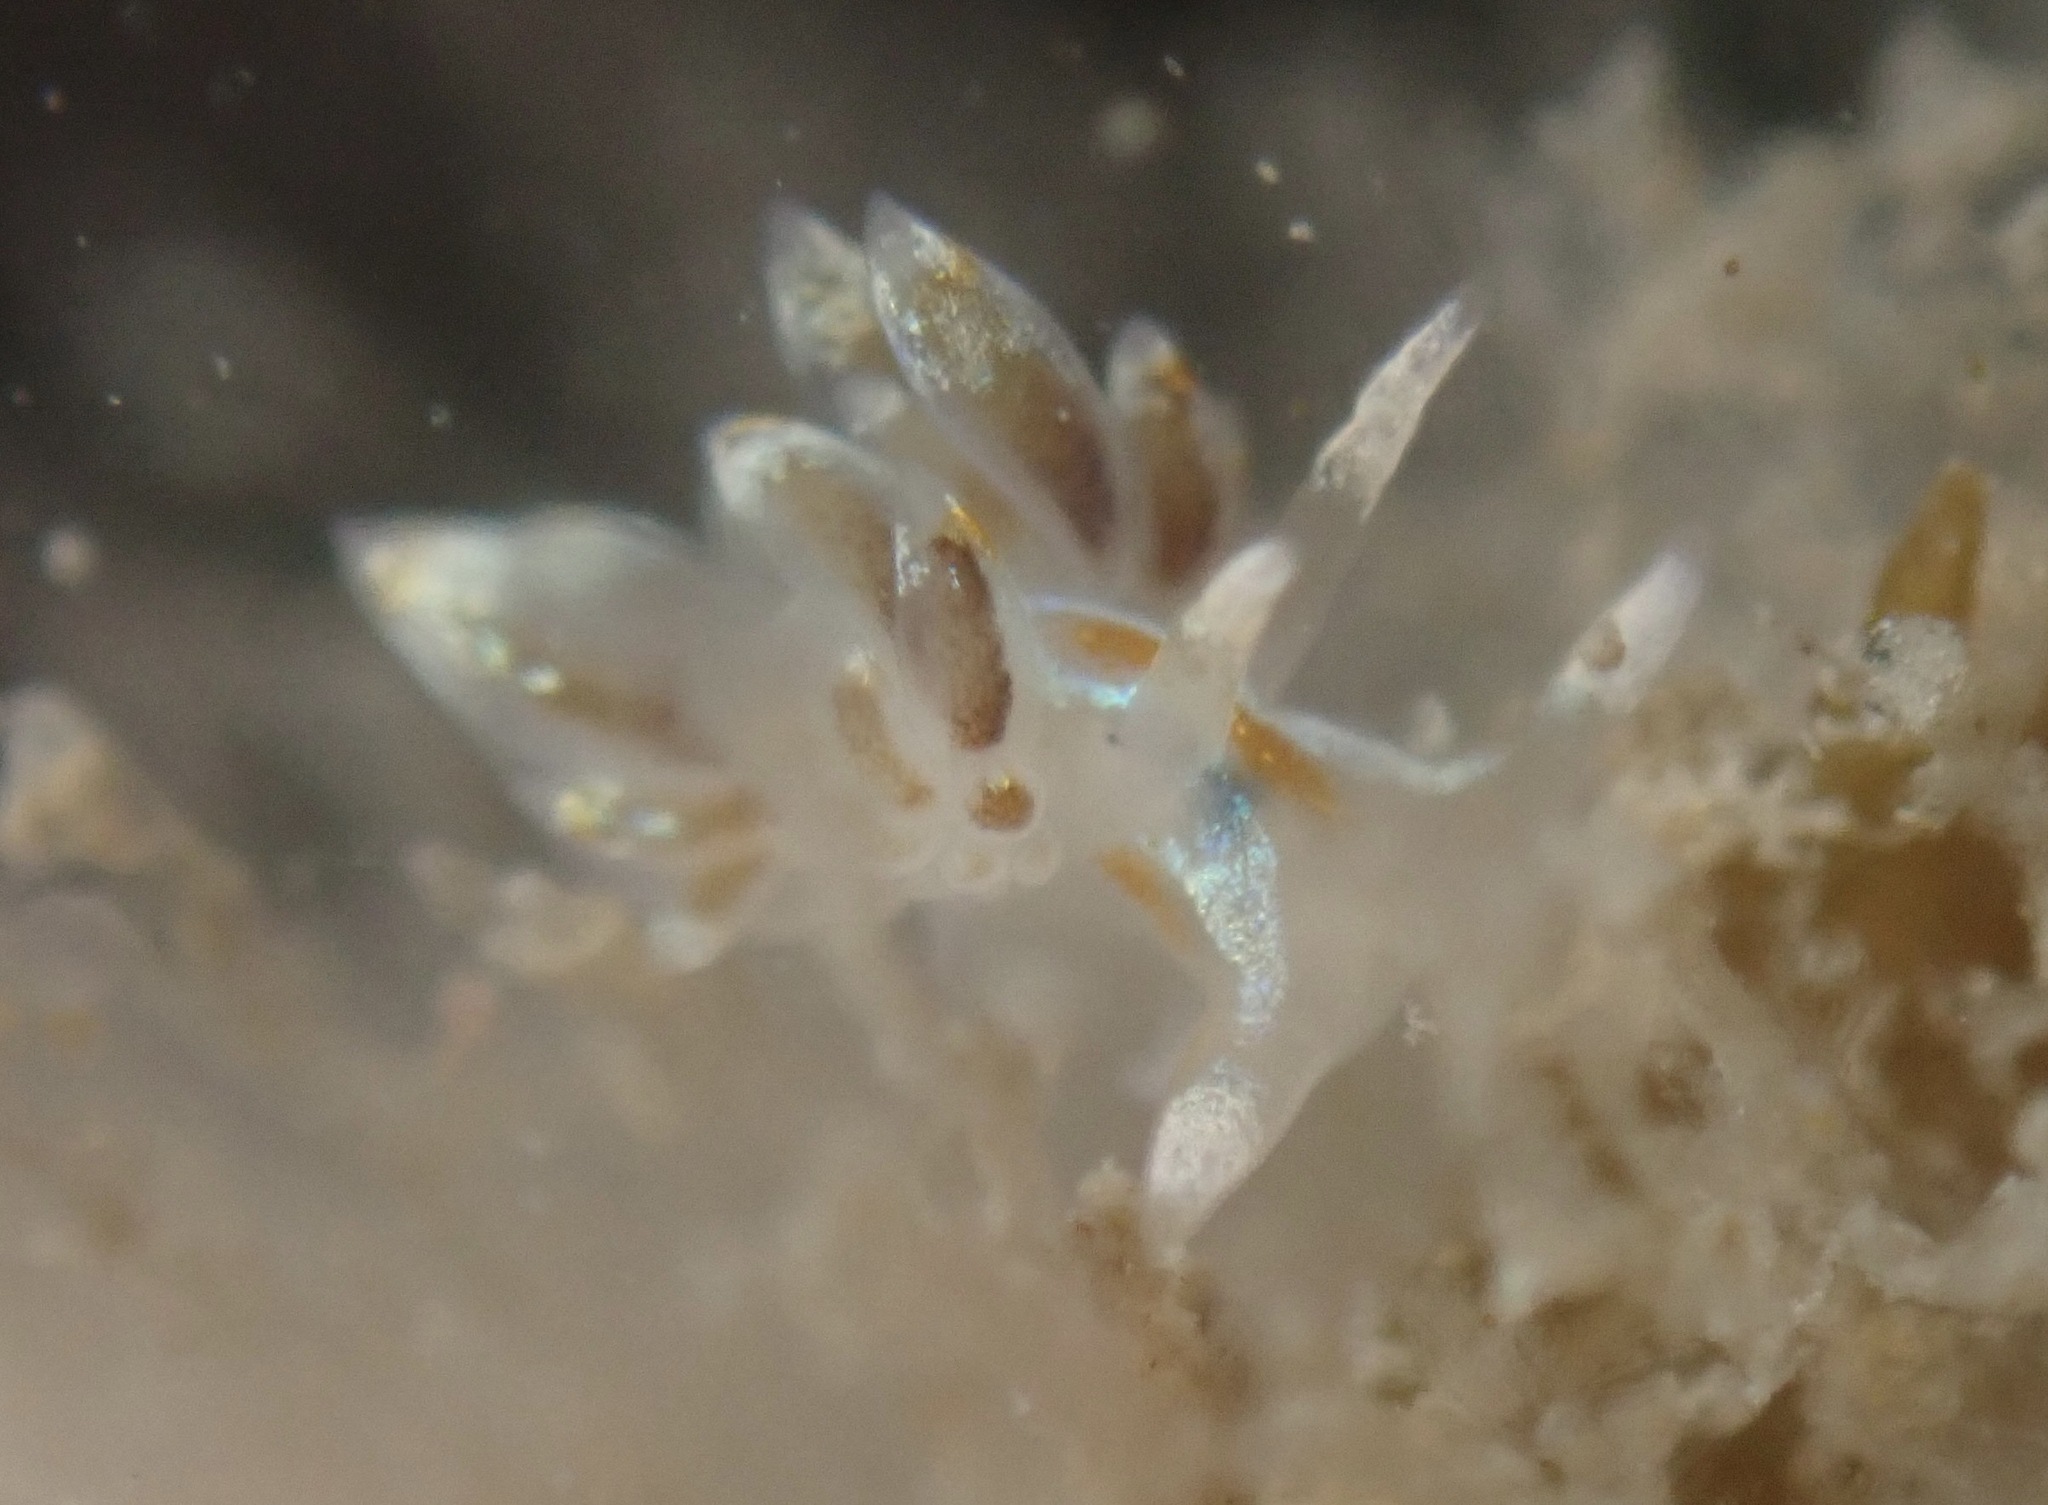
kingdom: Animalia
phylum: Mollusca
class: Gastropoda
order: Nudibranchia
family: Myrrhinidae
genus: Hermissenda
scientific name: Hermissenda opalescens
